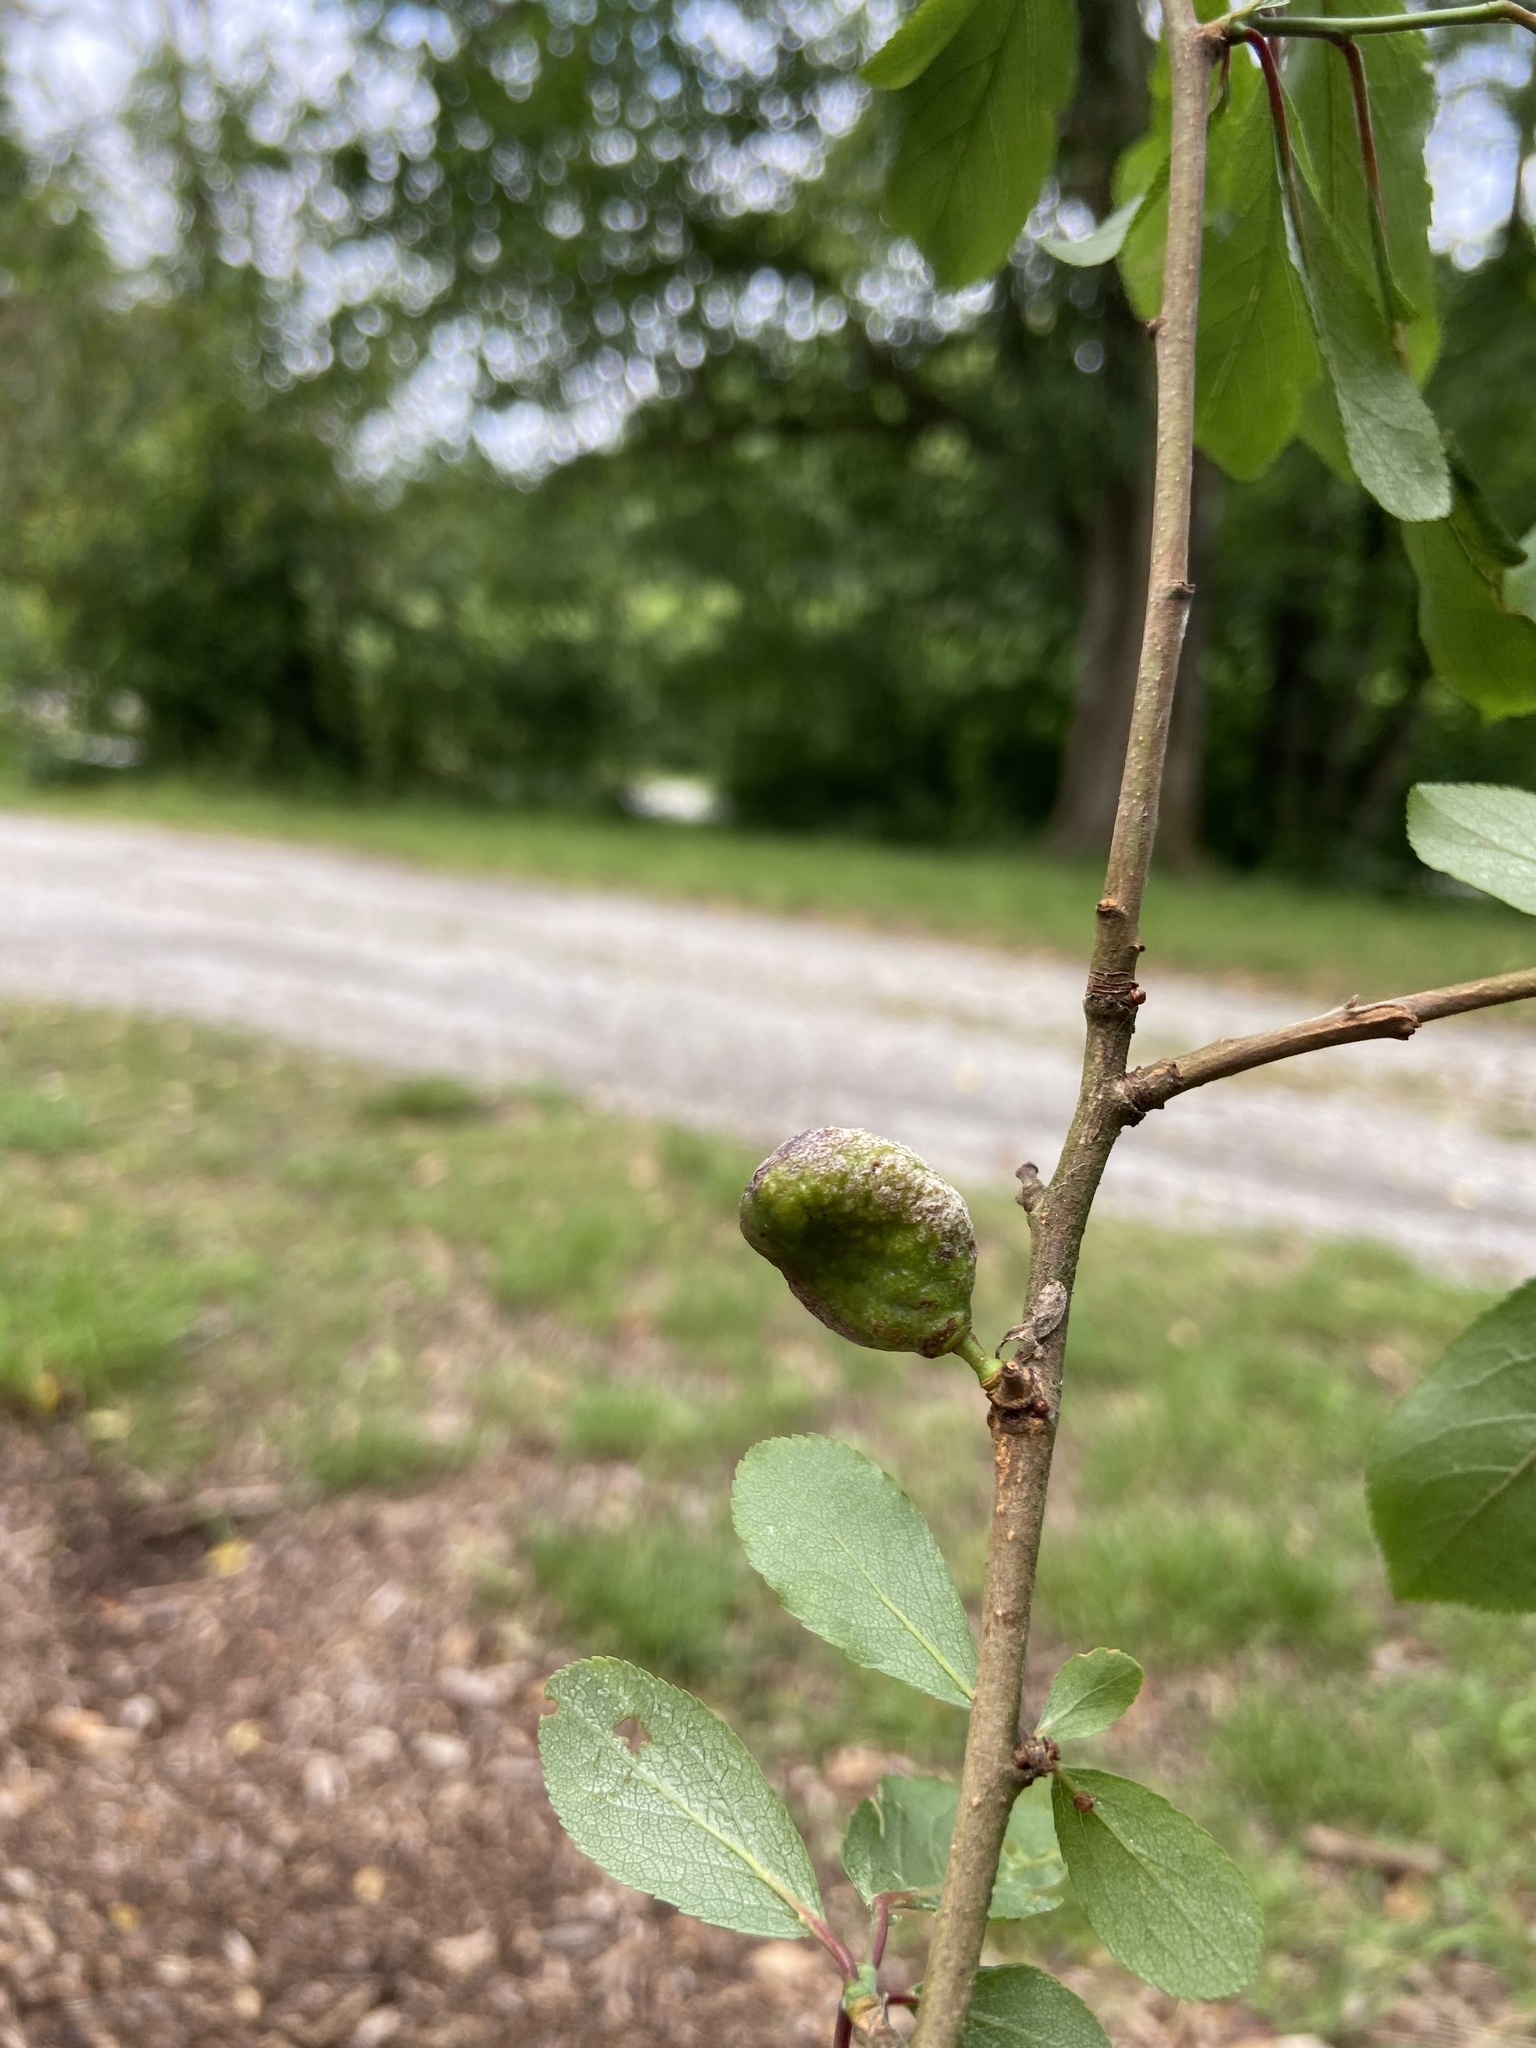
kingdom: Fungi
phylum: Ascomycota
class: Taphrinomycetes
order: Taphrinales
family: Taphrinaceae
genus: Taphrina
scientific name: Taphrina pruni
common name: Pocket plum
